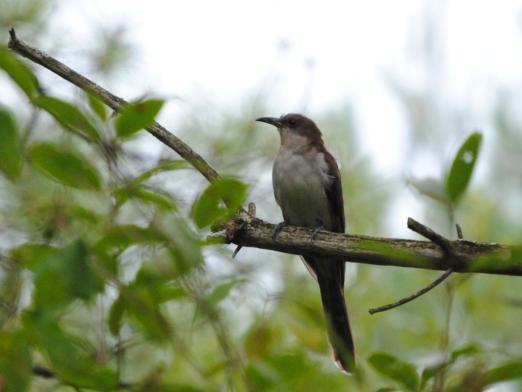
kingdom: Animalia
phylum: Chordata
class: Aves
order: Cuculiformes
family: Cuculidae
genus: Coccyzus
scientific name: Coccyzus erythropthalmus
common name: Black-billed cuckoo
